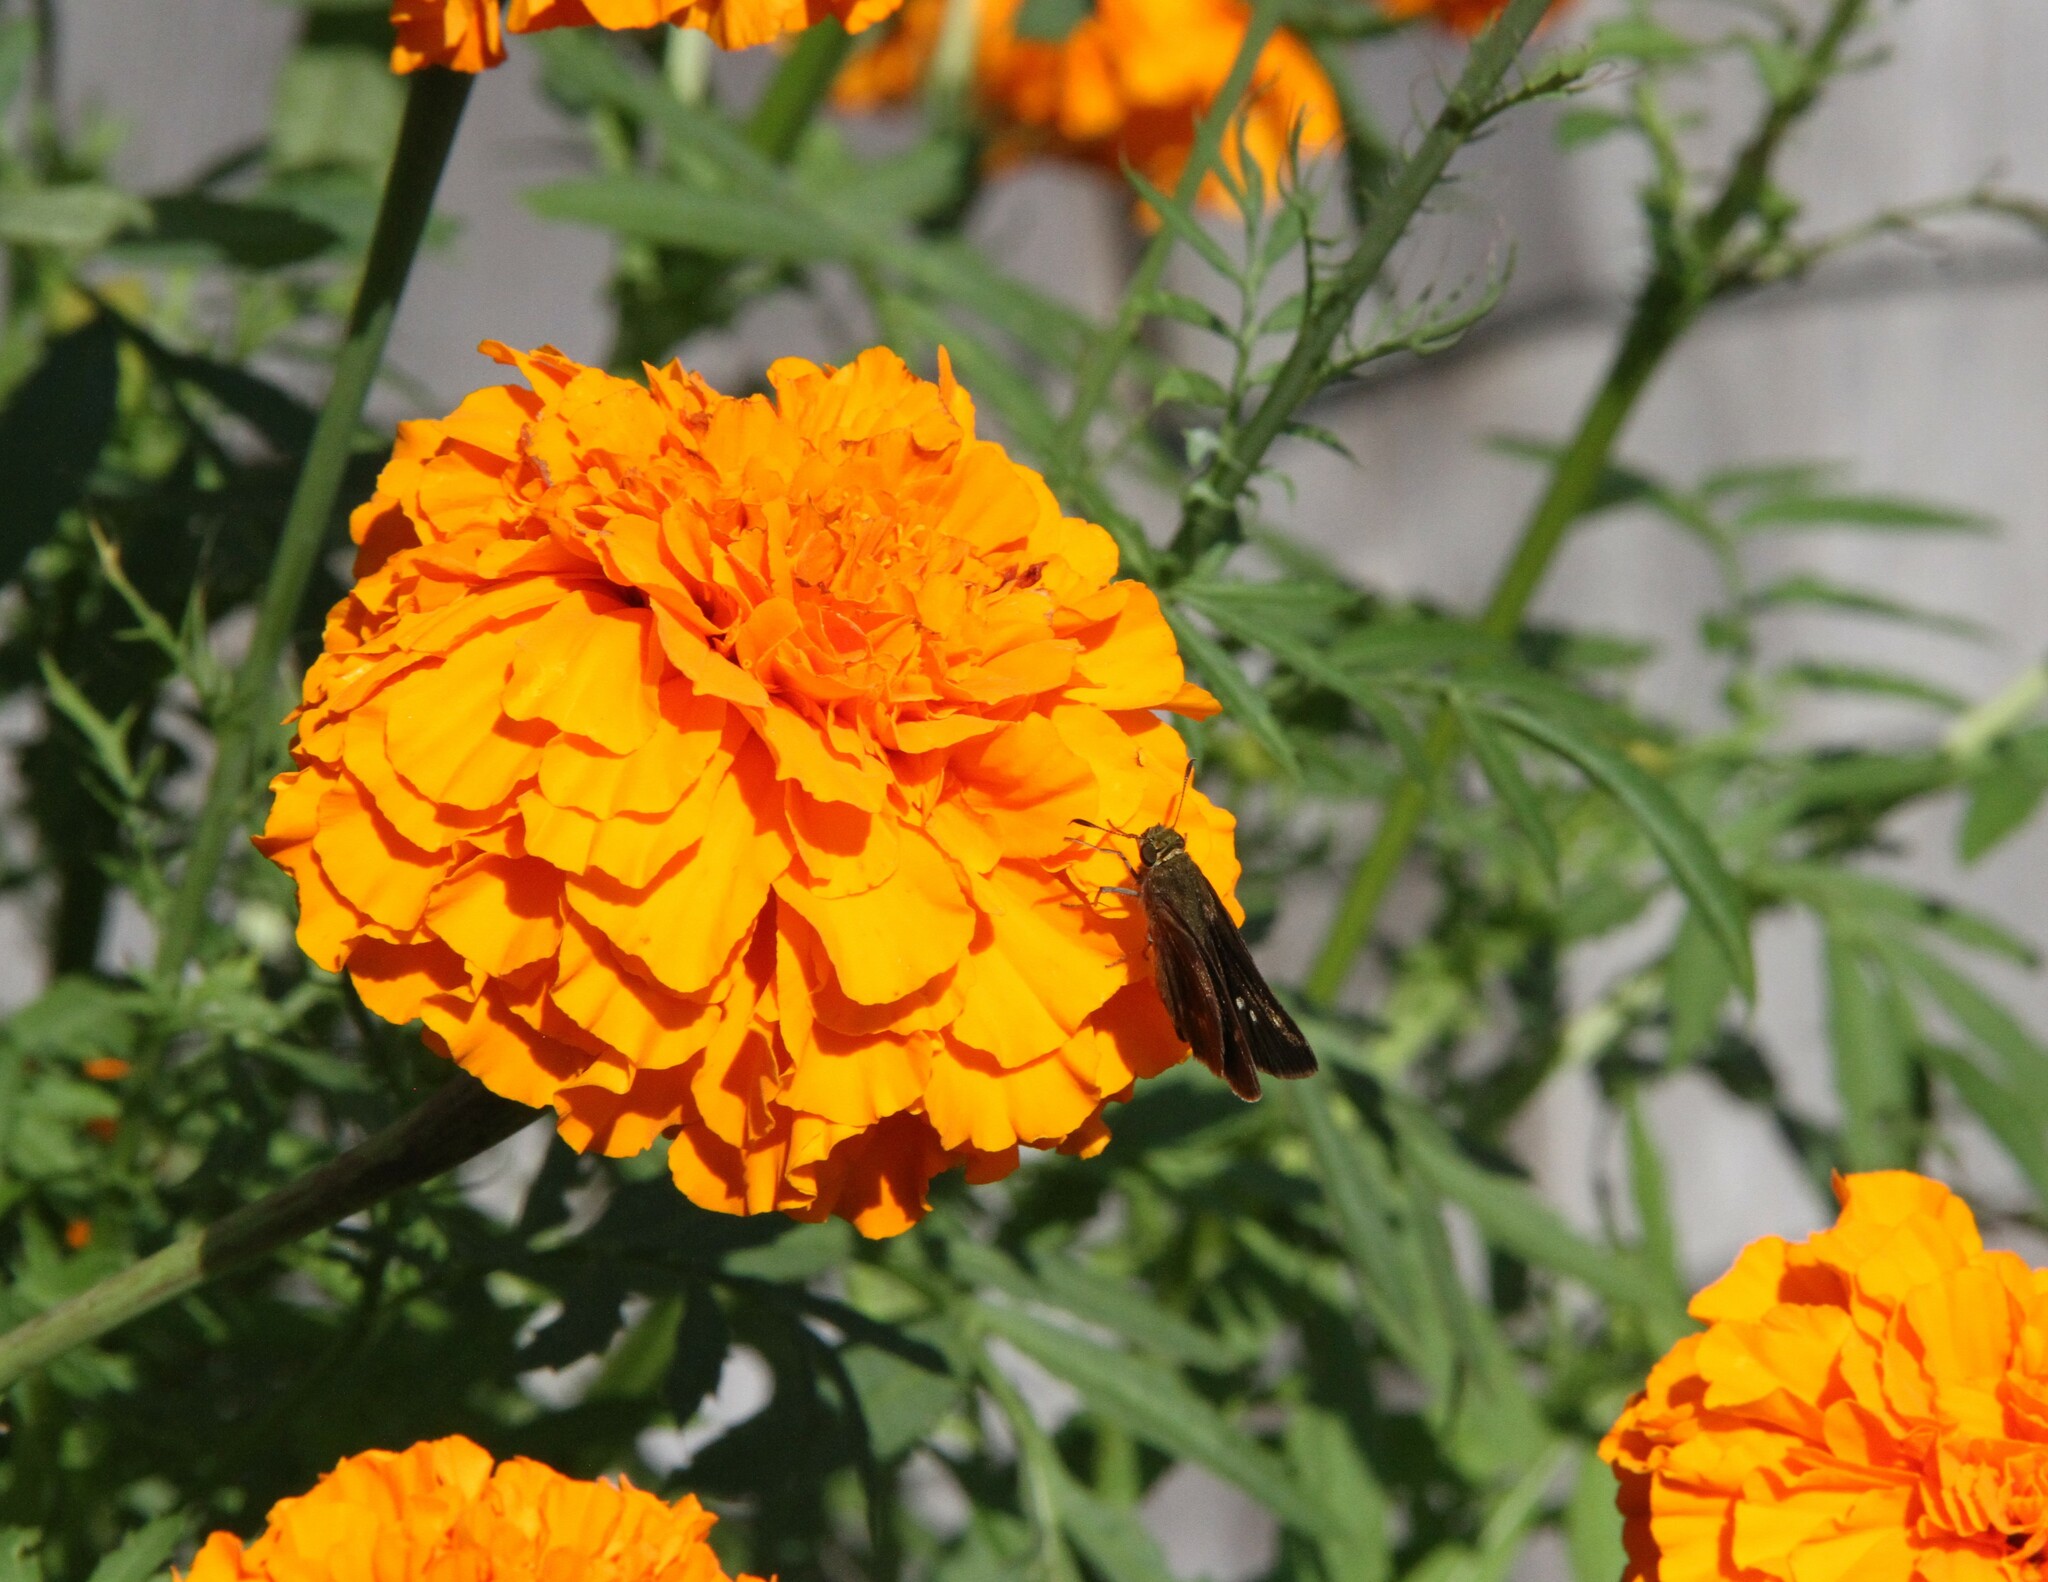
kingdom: Animalia
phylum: Arthropoda
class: Insecta
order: Lepidoptera
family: Hesperiidae
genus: Euphyes
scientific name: Euphyes vestris
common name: Dun skipper
